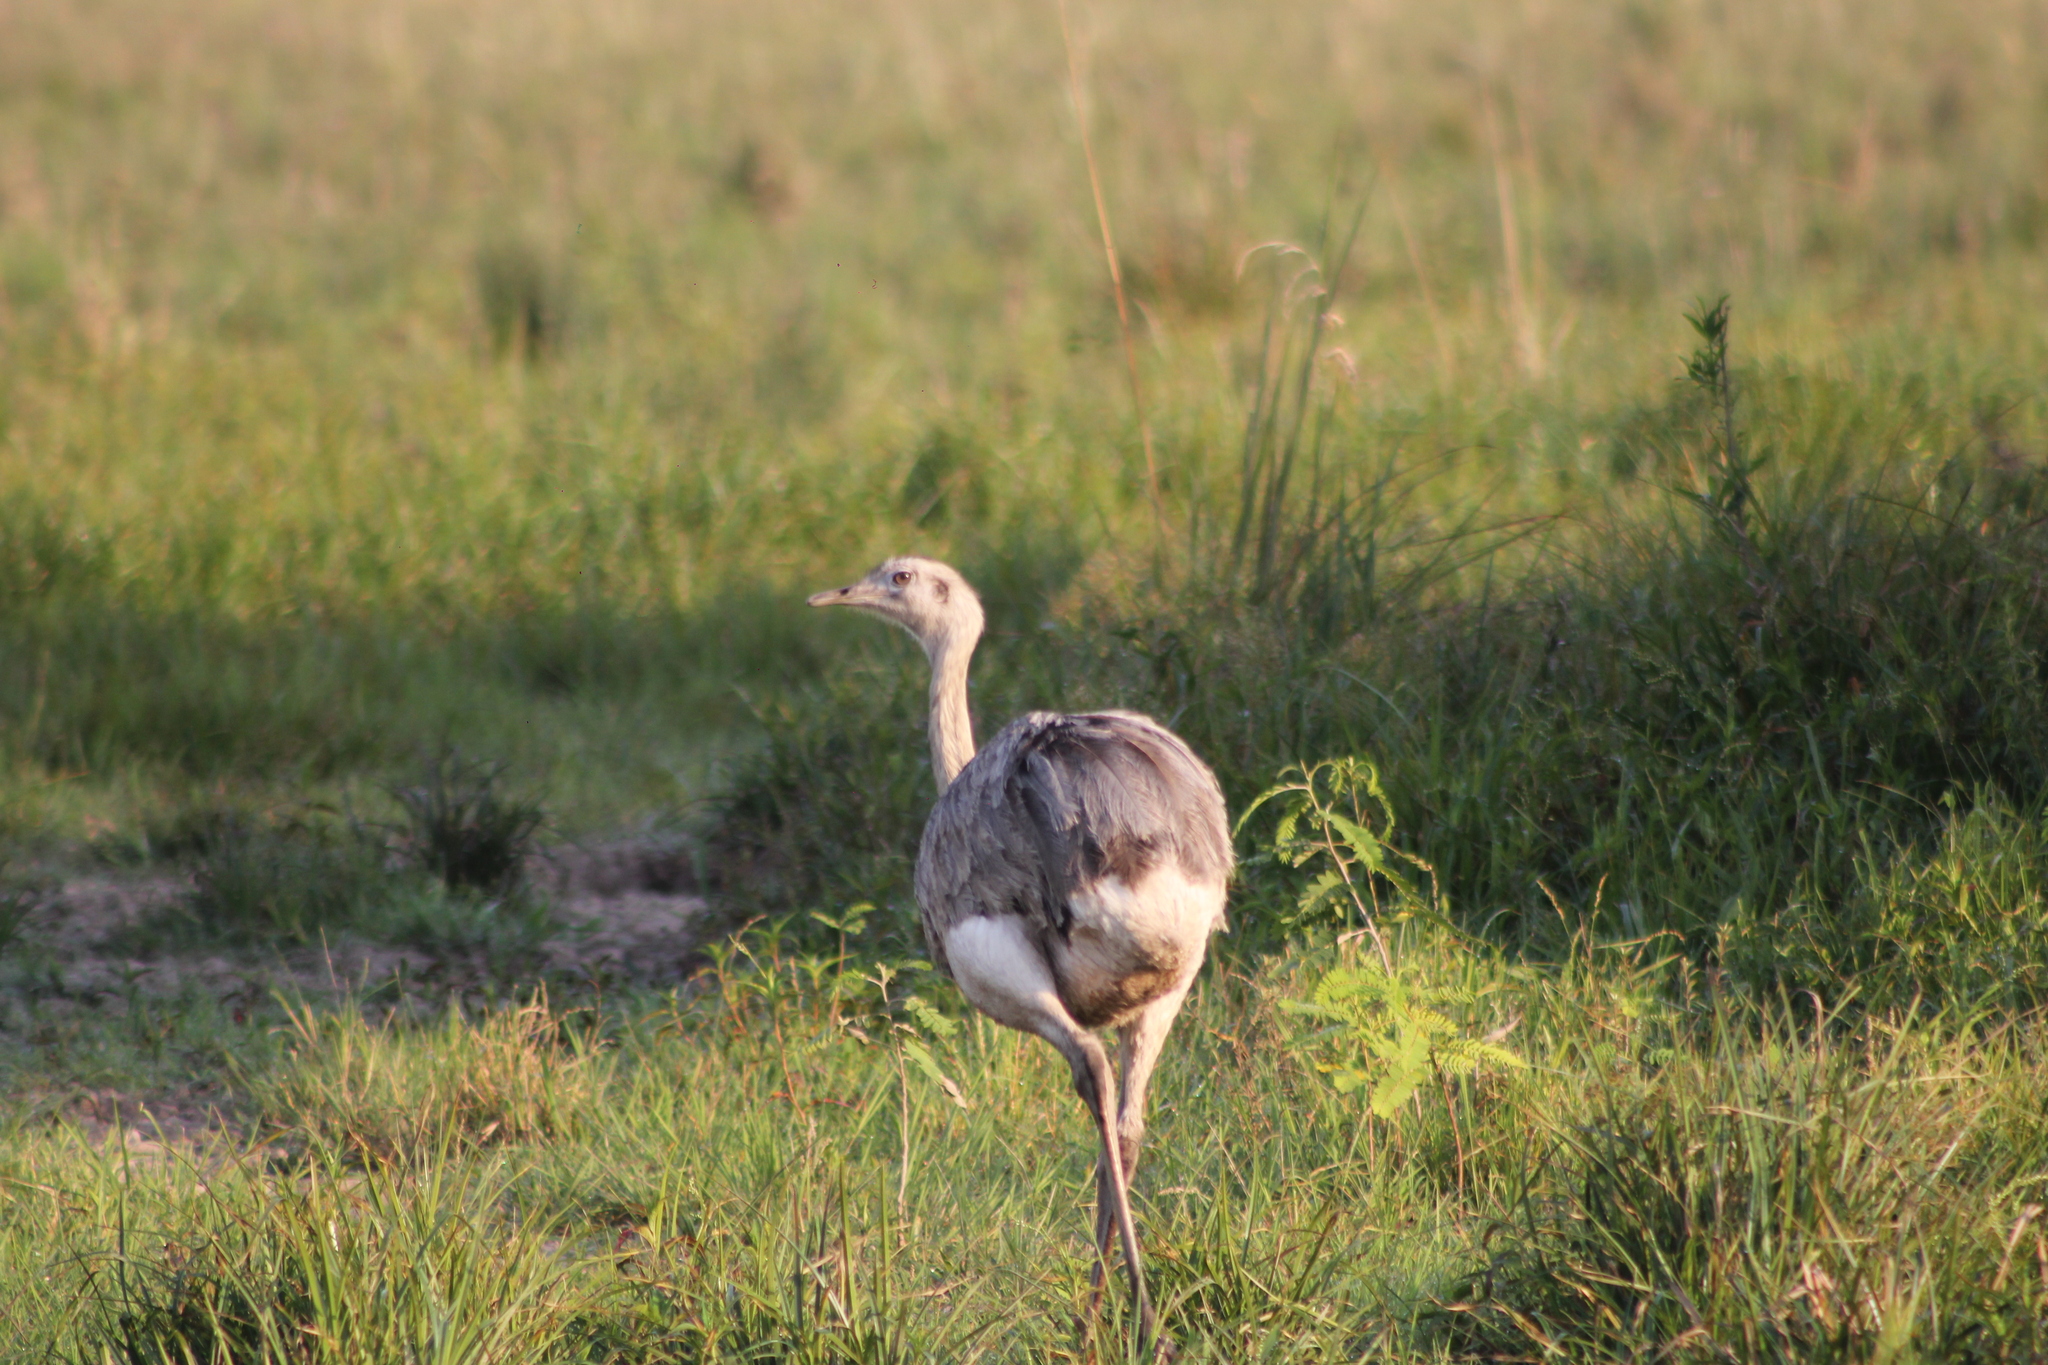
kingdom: Animalia
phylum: Chordata
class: Aves
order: Rheiformes
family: Rheidae
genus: Rhea
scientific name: Rhea americana
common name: Greater rhea
